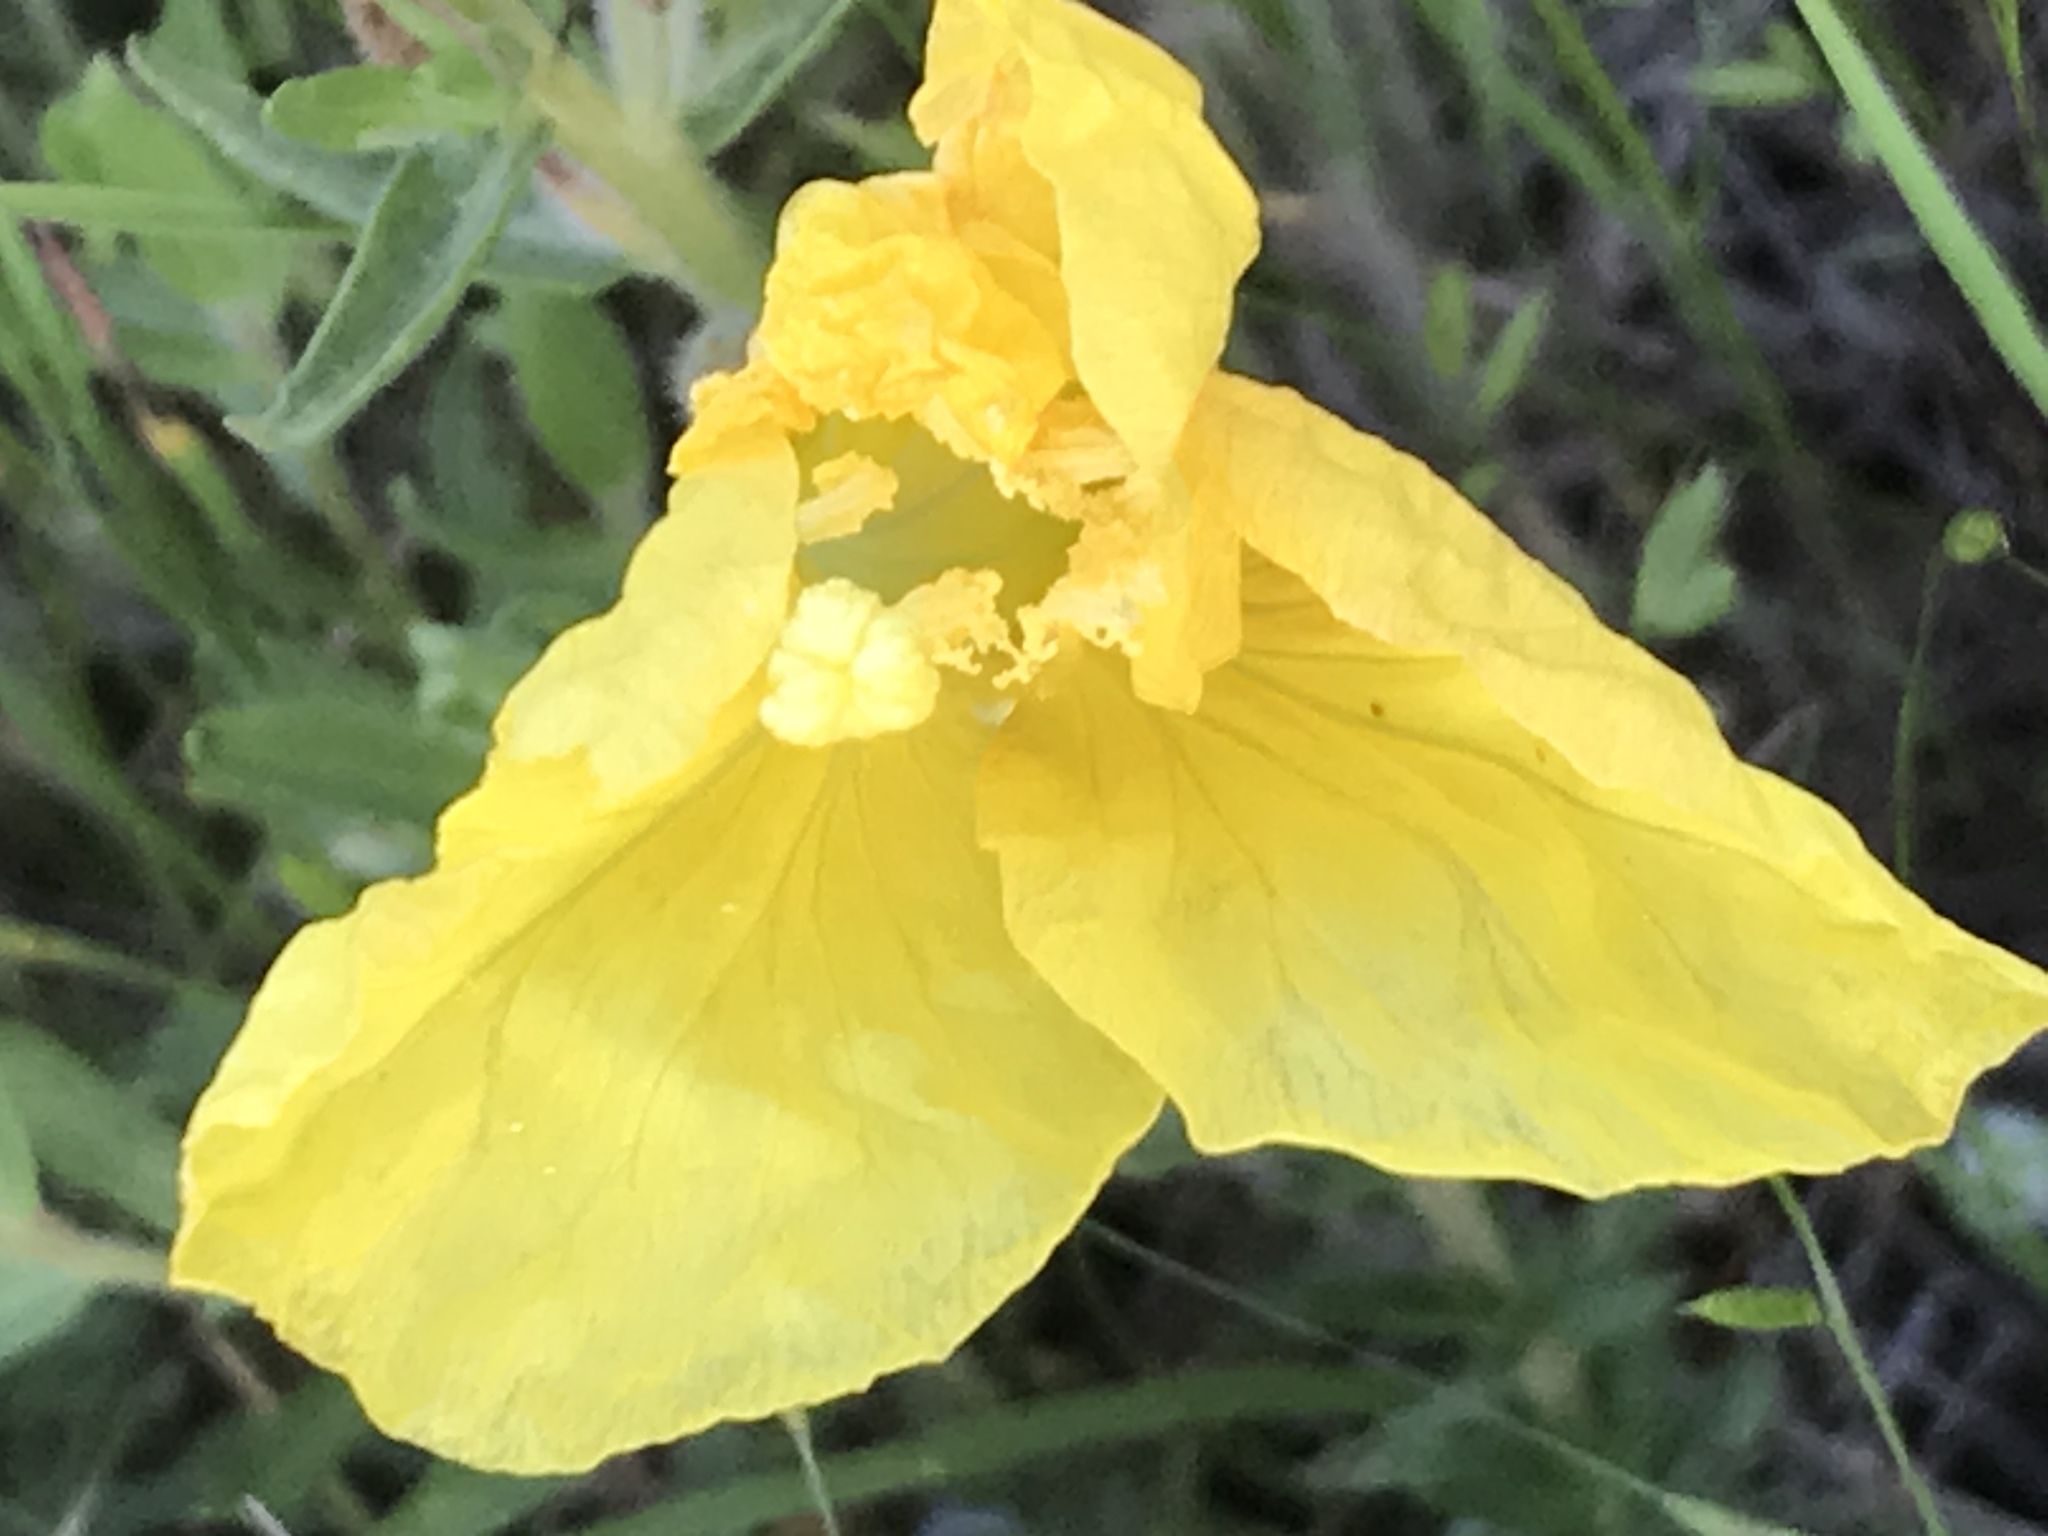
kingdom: Plantae
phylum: Tracheophyta
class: Magnoliopsida
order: Myrtales
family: Onagraceae
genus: Oenothera
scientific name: Oenothera hartwegii
